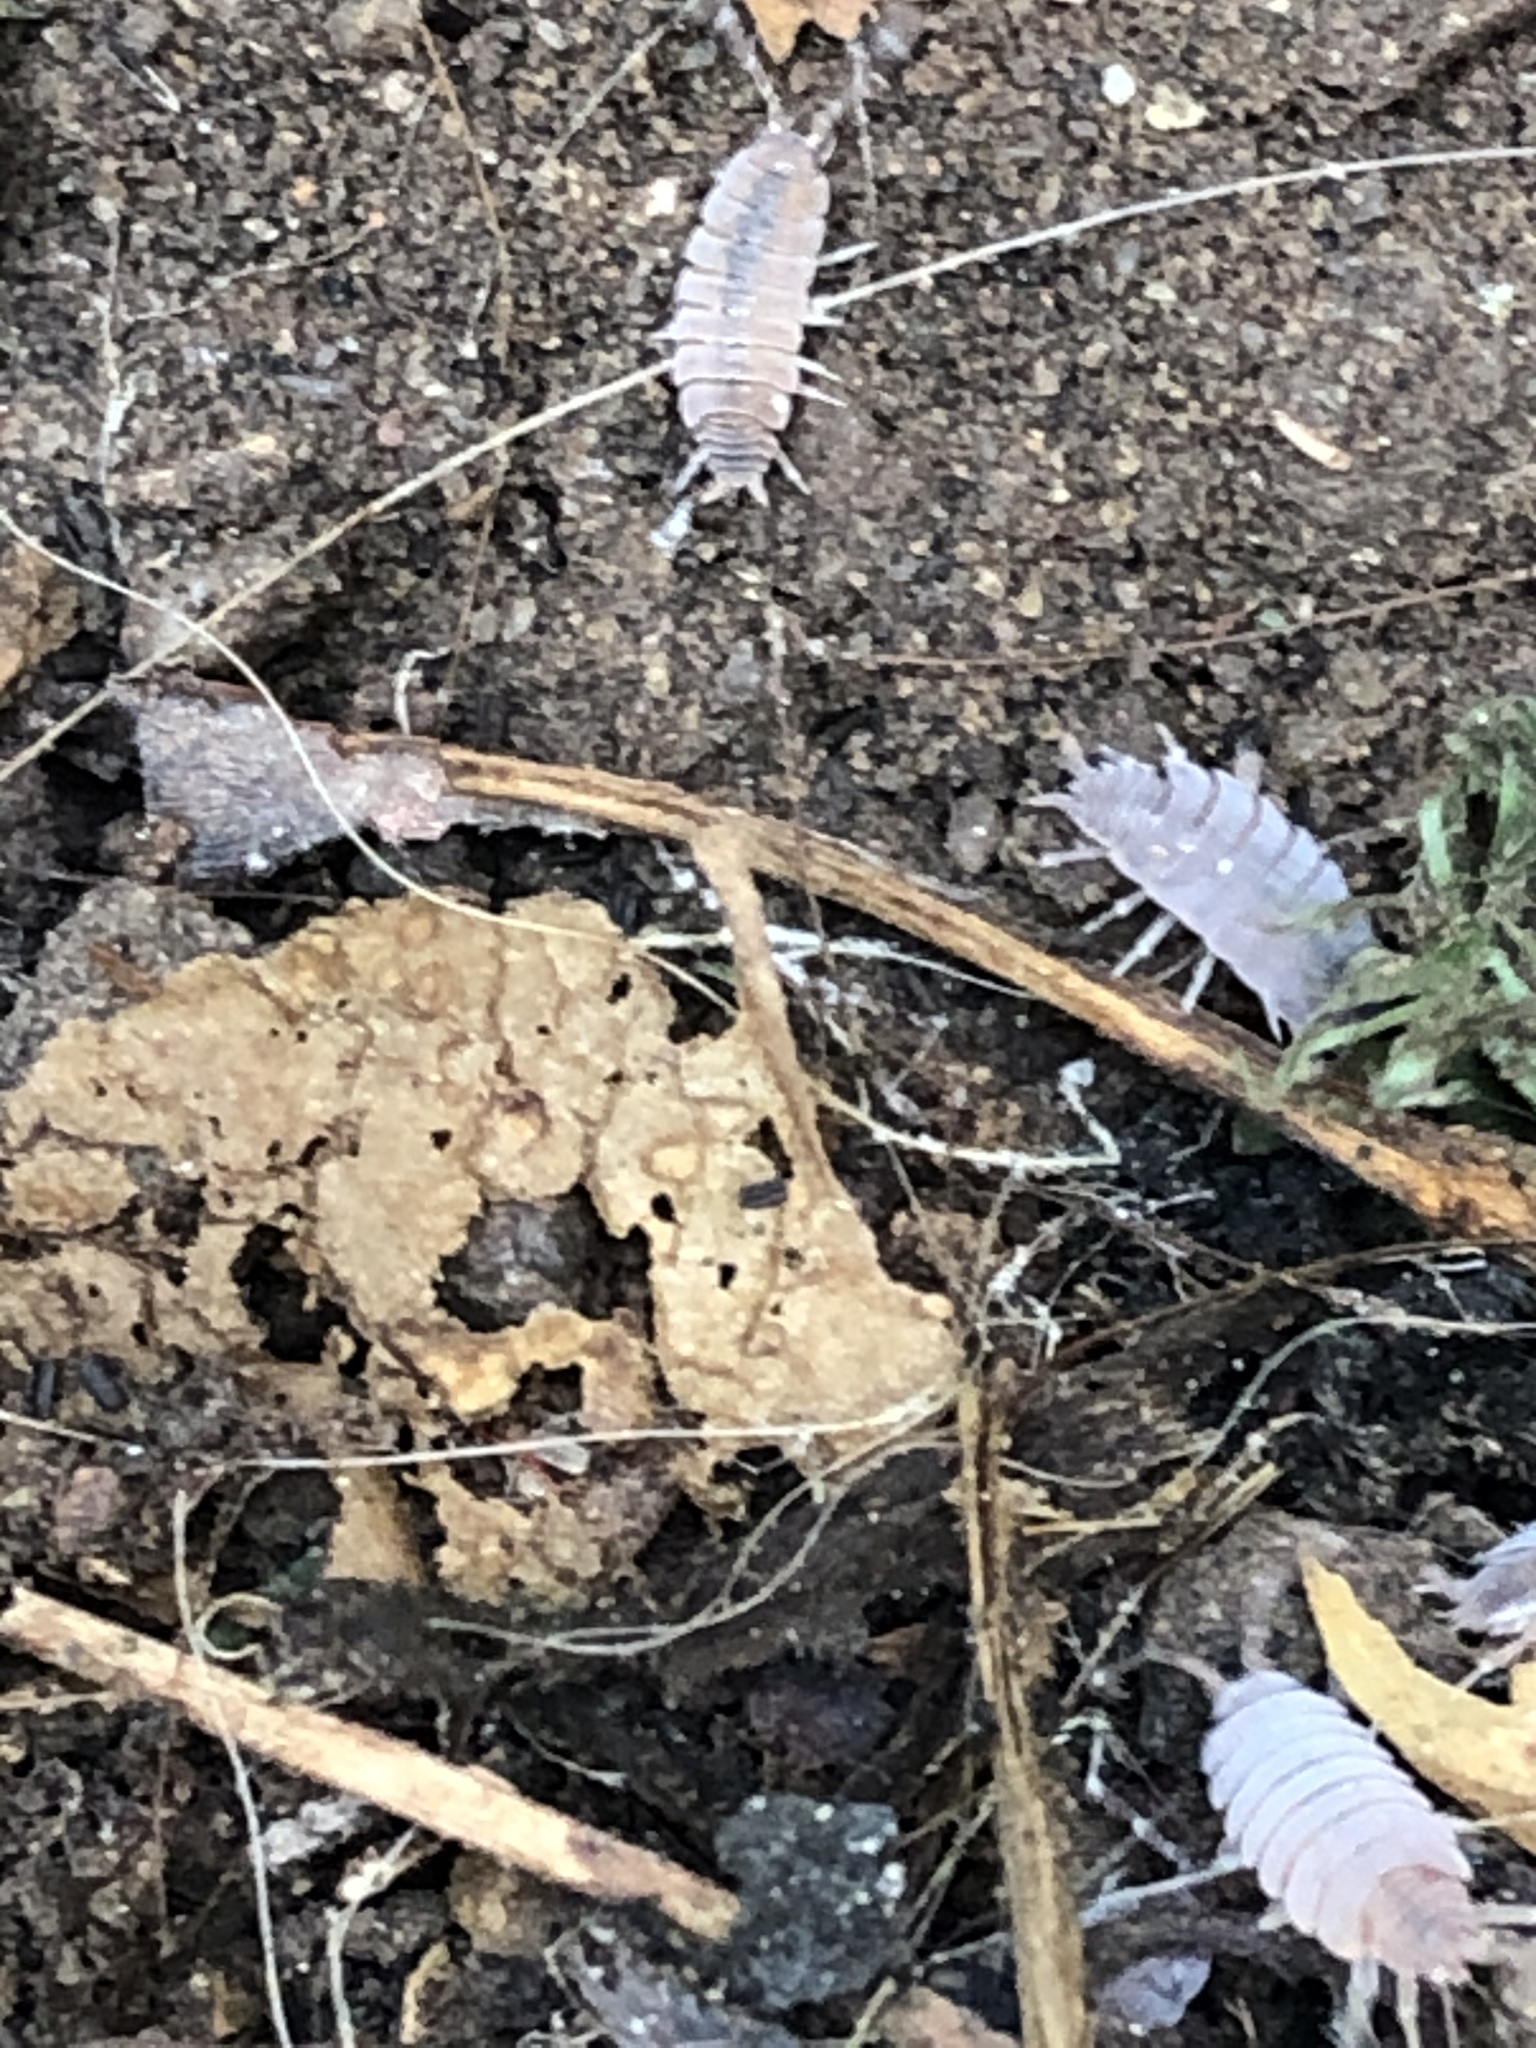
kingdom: Animalia
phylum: Arthropoda
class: Malacostraca
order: Isopoda
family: Porcellionidae
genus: Porcellionides
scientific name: Porcellionides pruinosus
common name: Plum woodlouse
